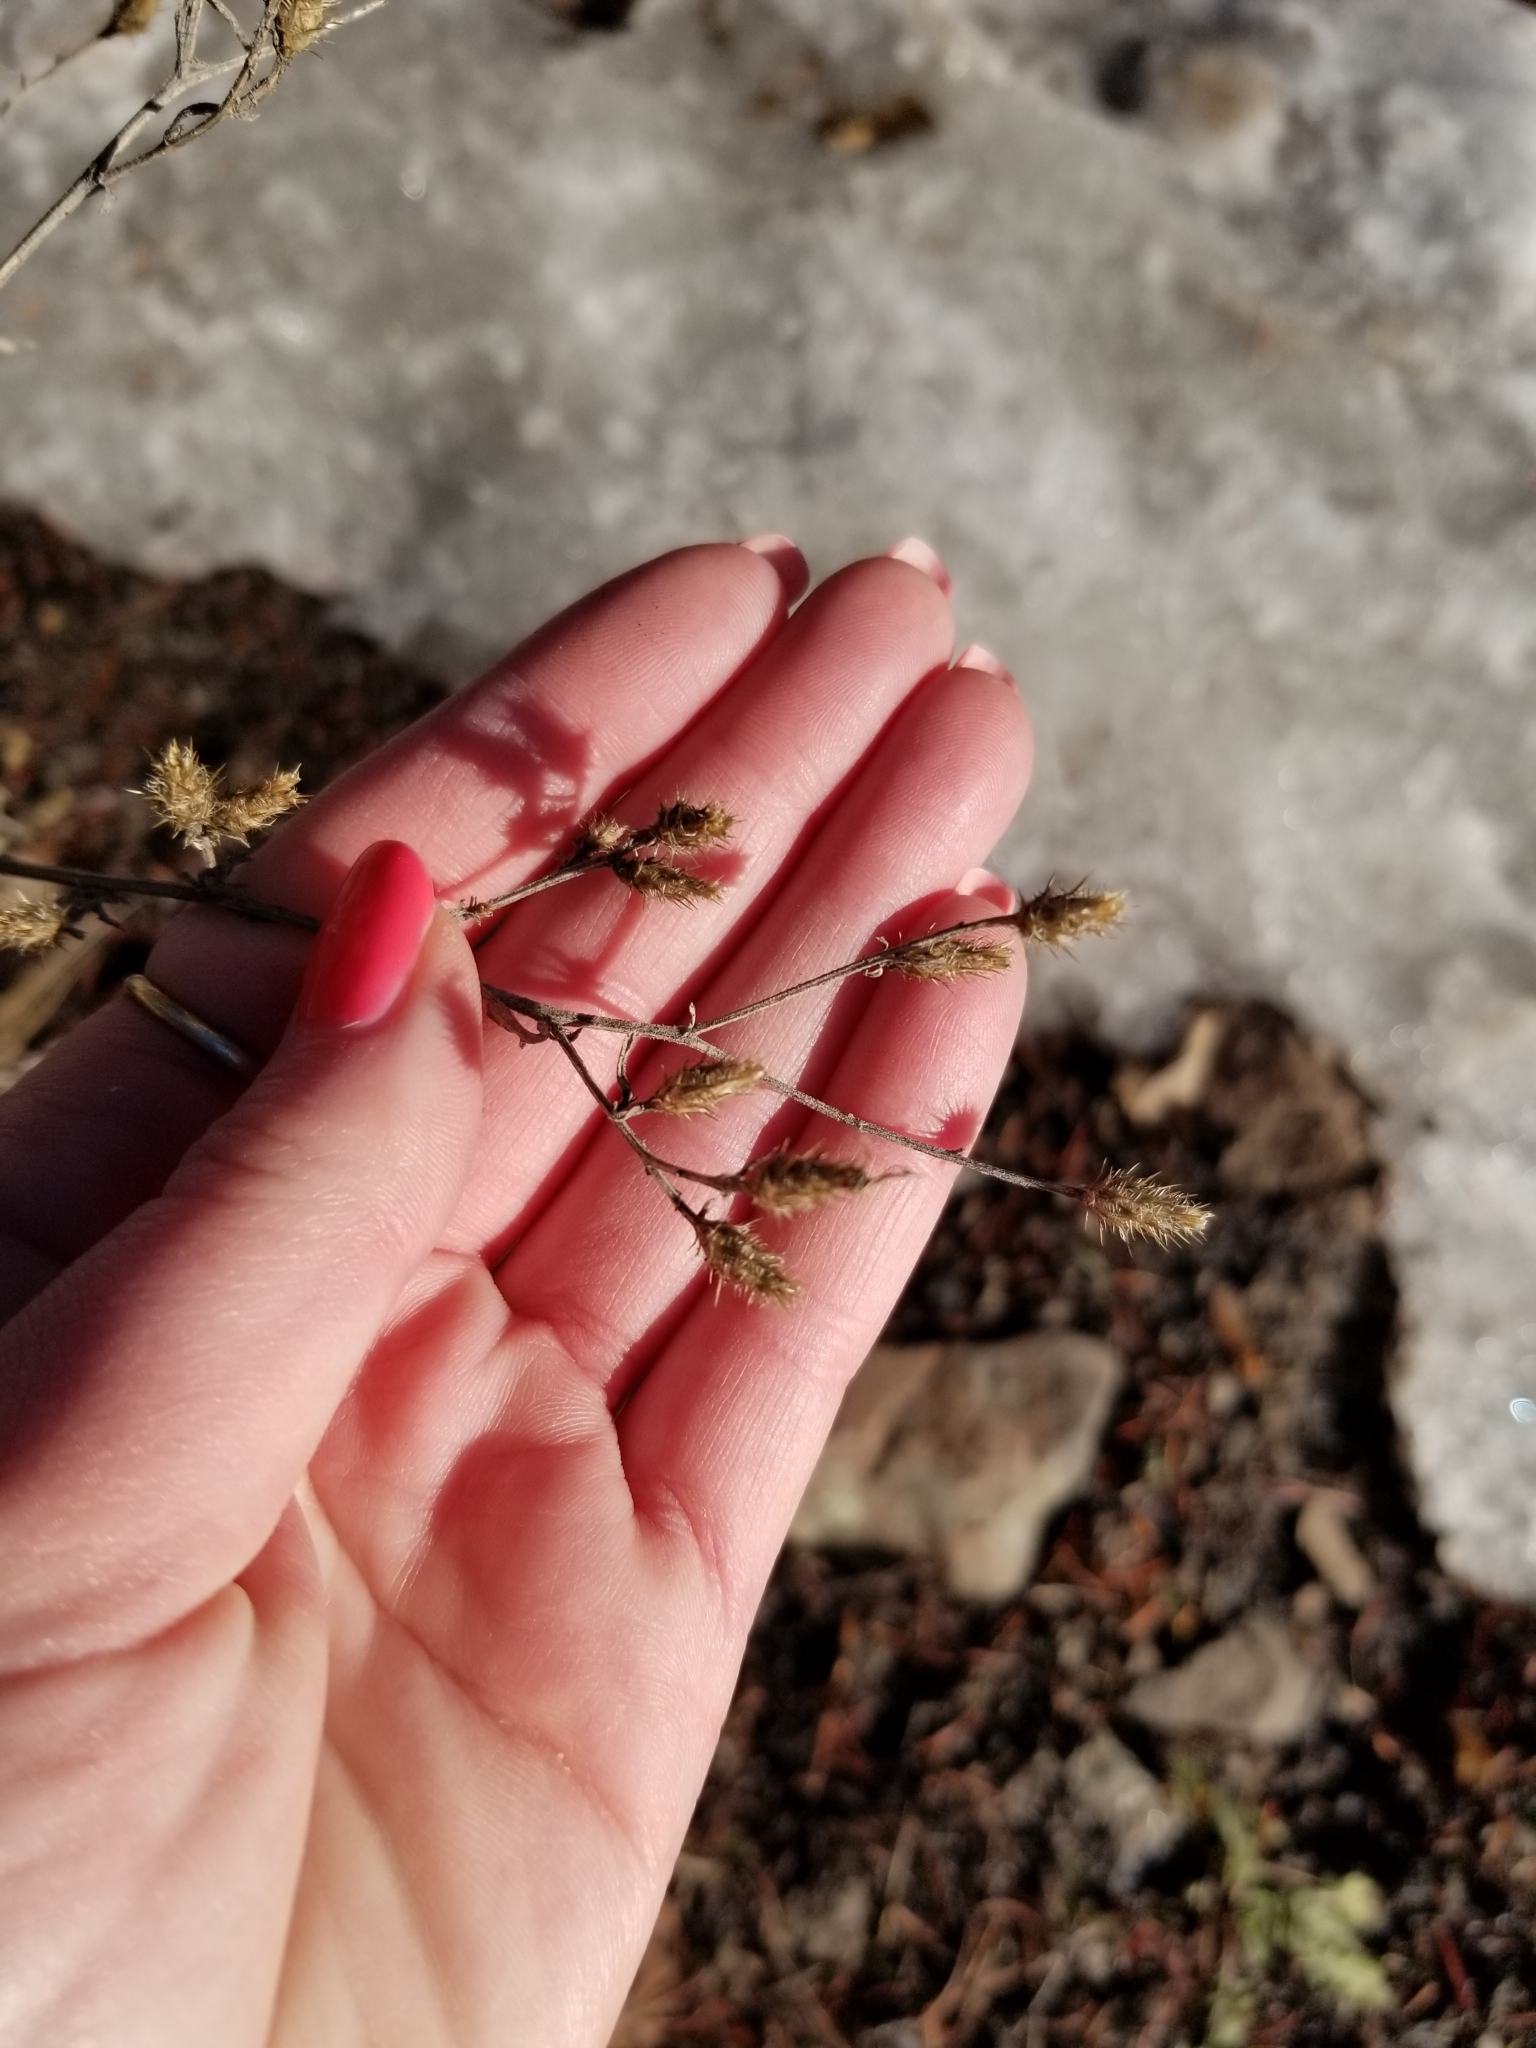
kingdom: Plantae
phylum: Tracheophyta
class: Magnoliopsida
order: Asterales
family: Asteraceae
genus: Centaurea
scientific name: Centaurea diffusa
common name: Diffuse knapweed
